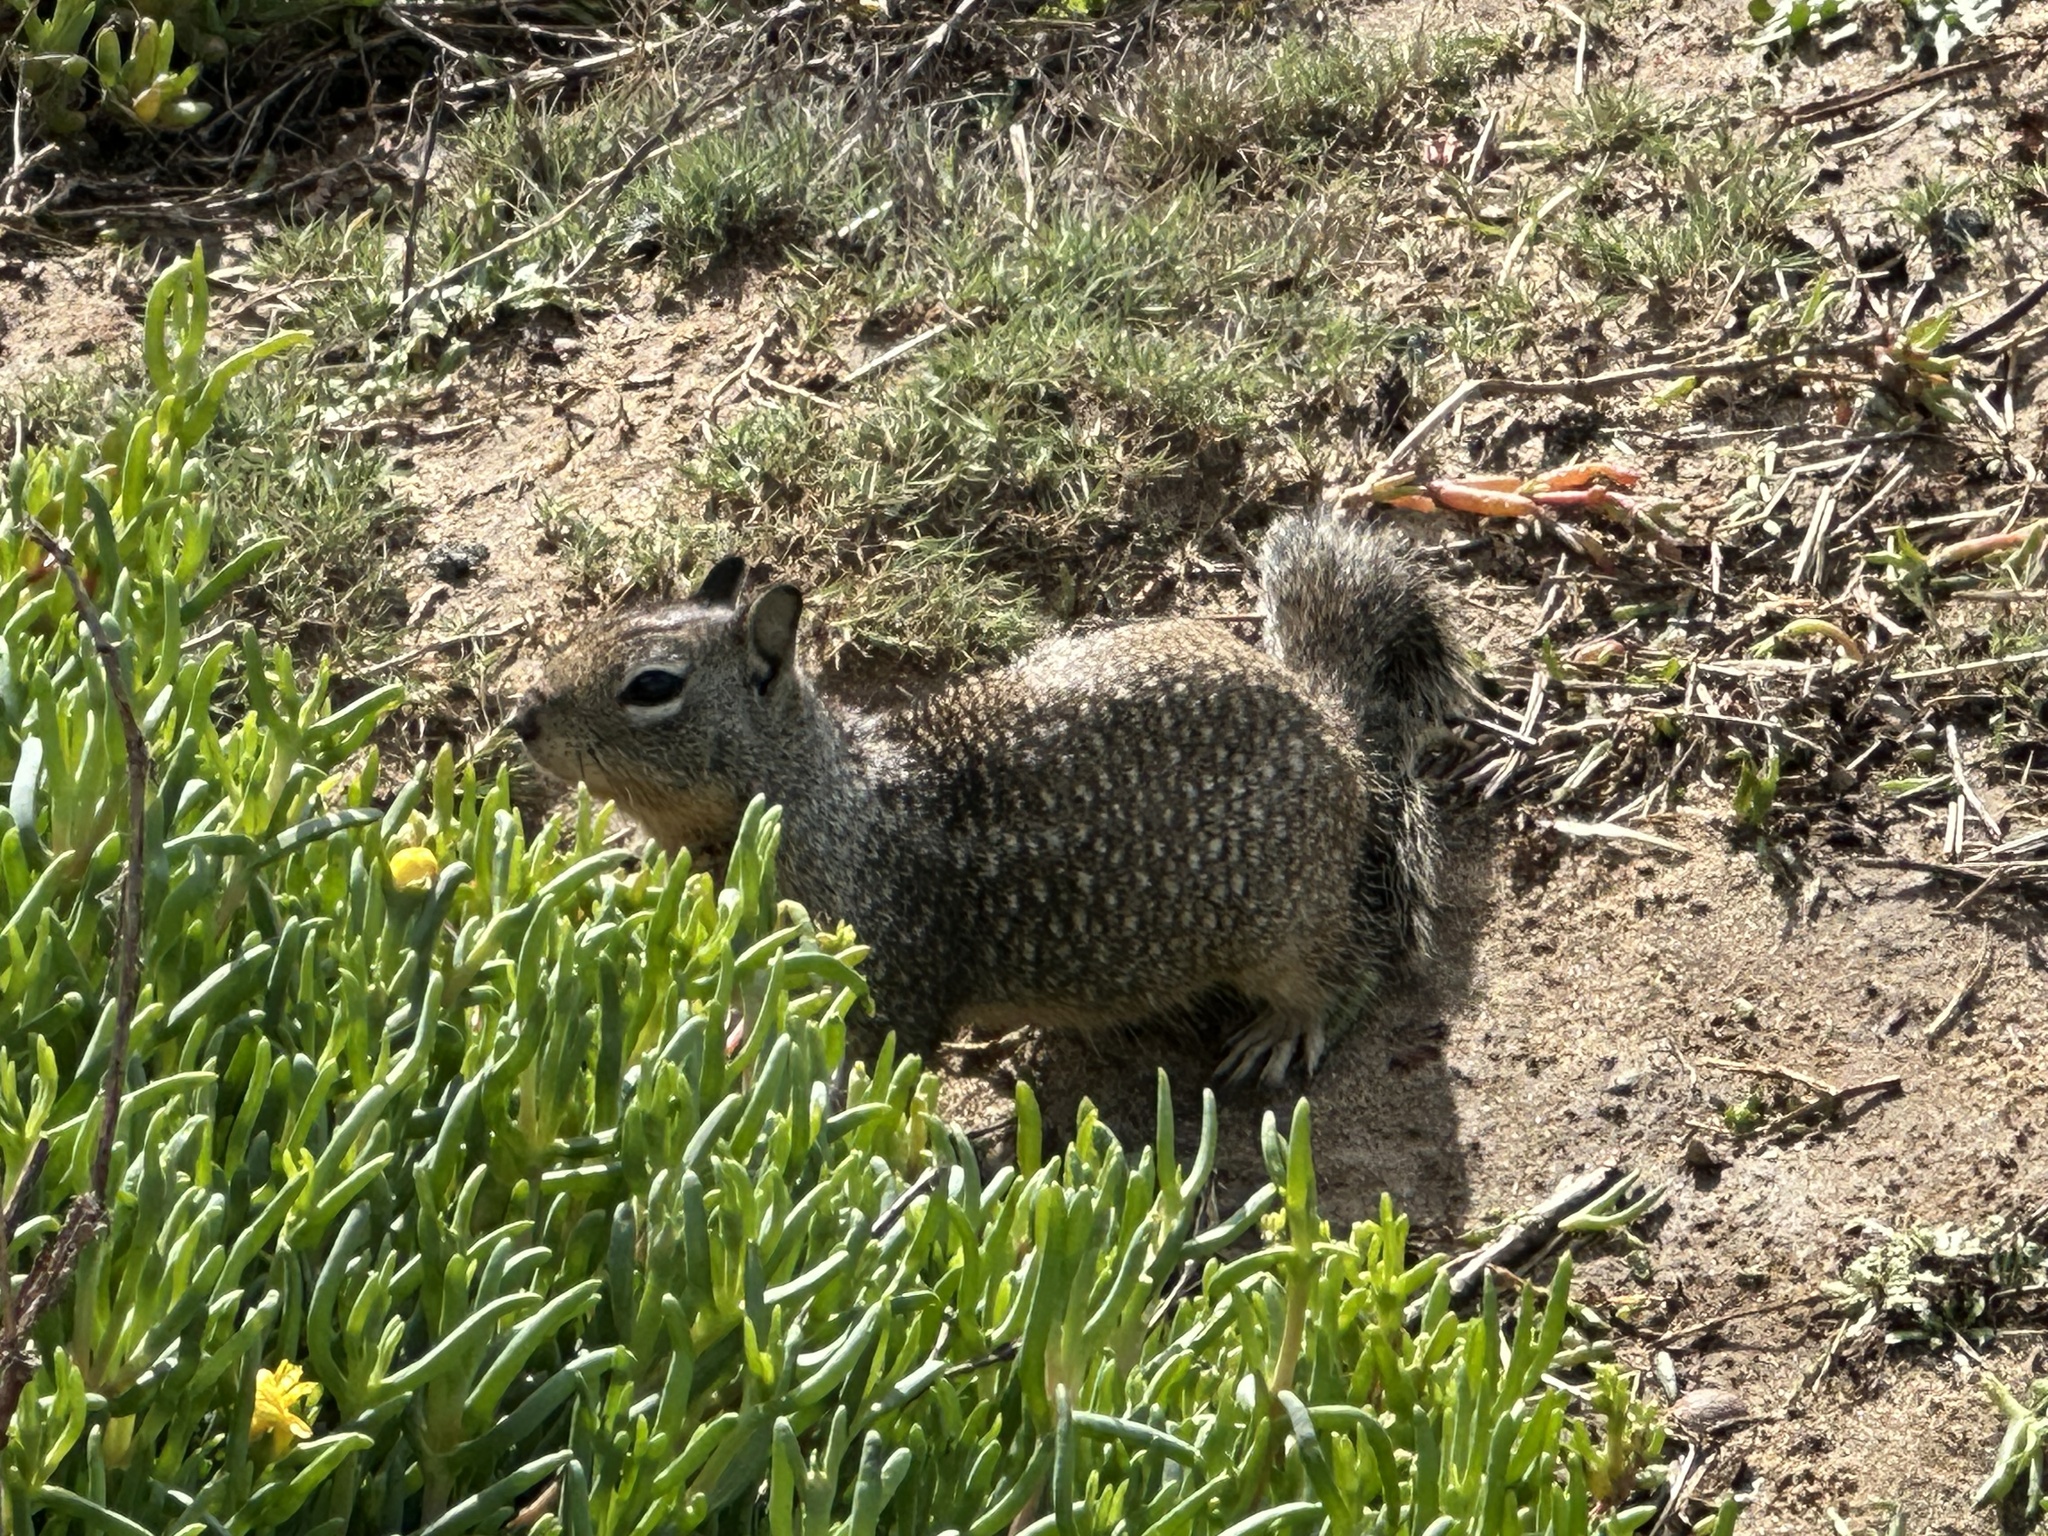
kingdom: Animalia
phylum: Chordata
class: Mammalia
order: Rodentia
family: Sciuridae
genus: Otospermophilus
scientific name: Otospermophilus beecheyi
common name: California ground squirrel
